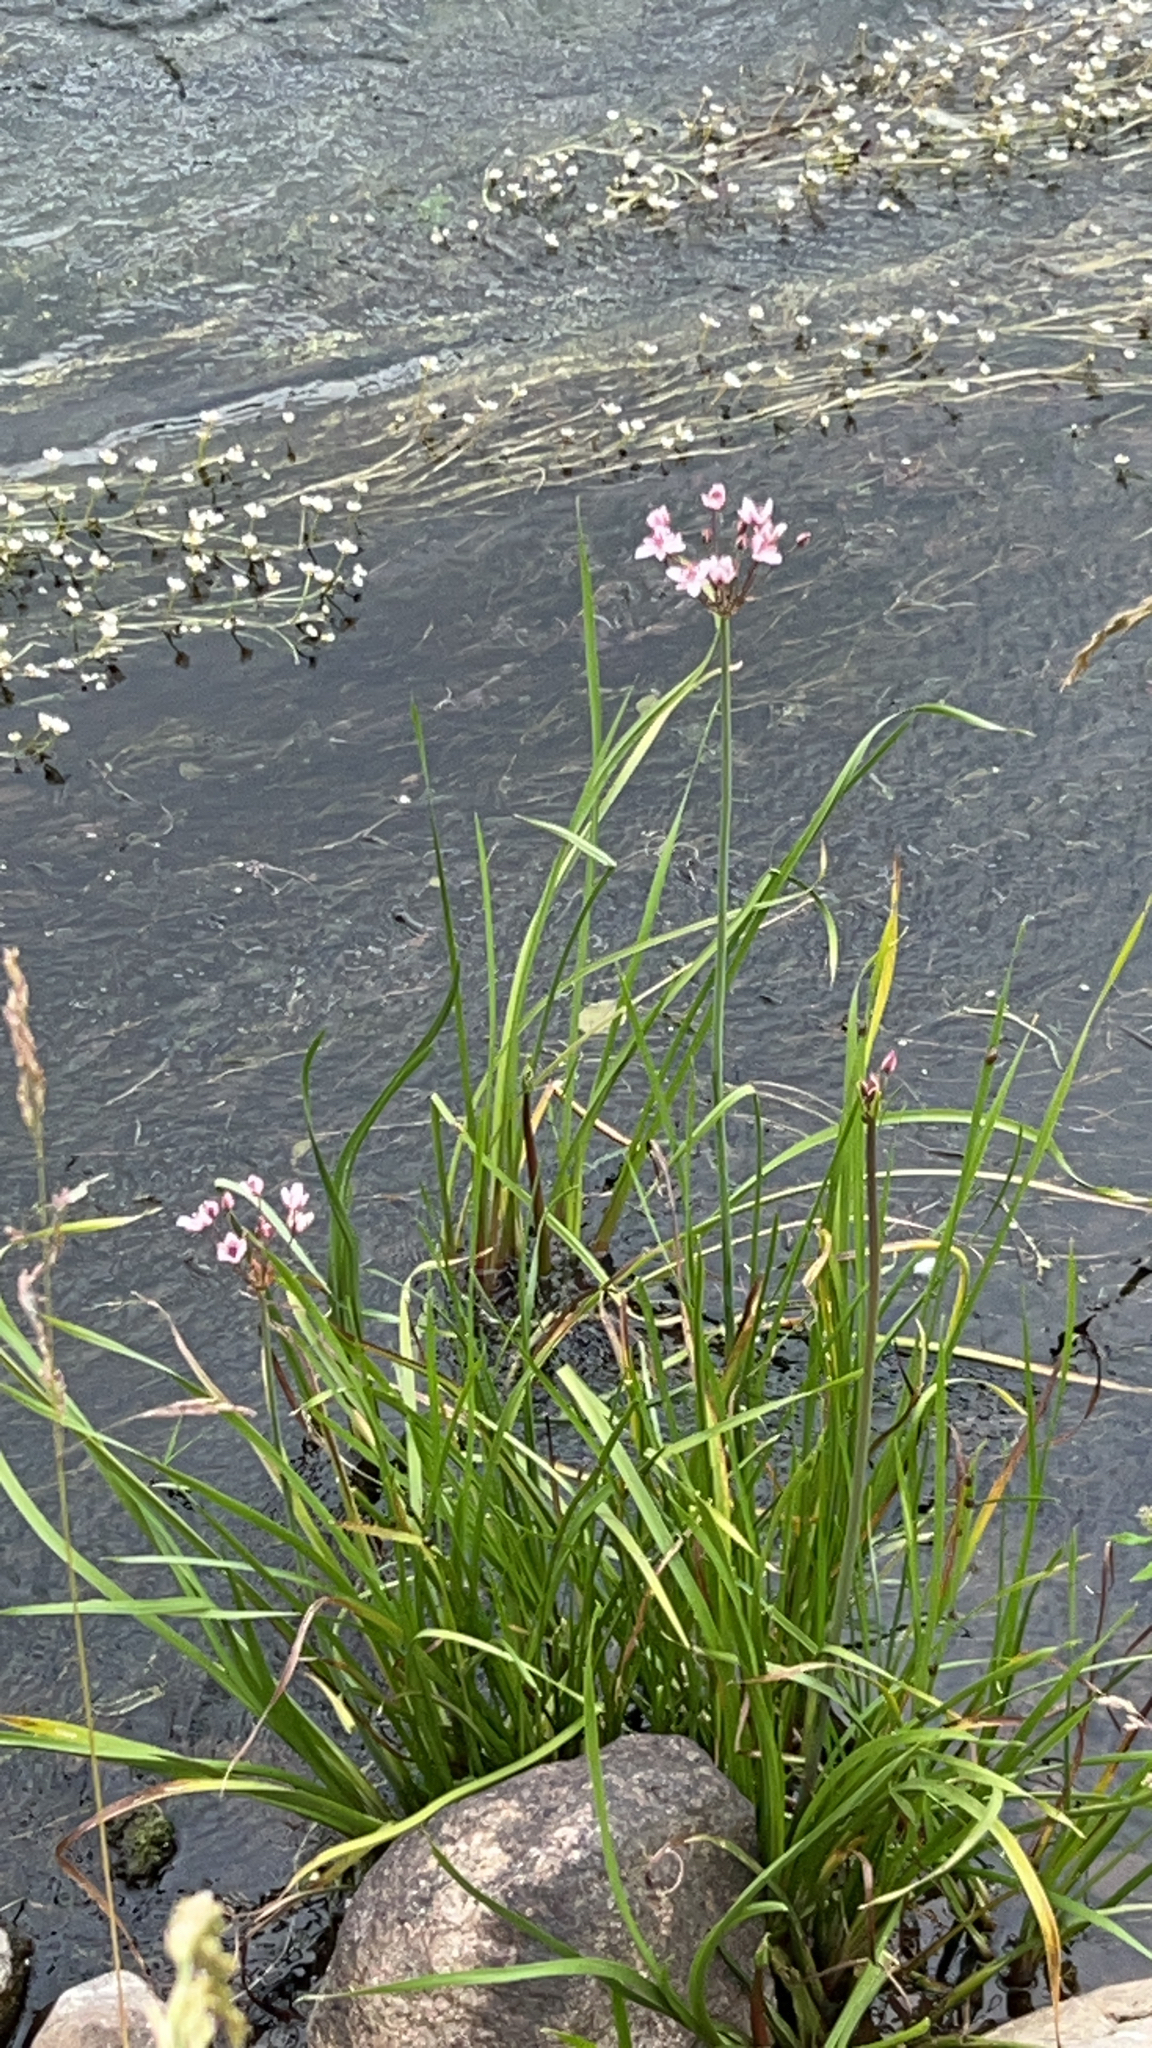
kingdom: Plantae
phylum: Tracheophyta
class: Liliopsida
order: Alismatales
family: Butomaceae
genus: Butomus
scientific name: Butomus umbellatus
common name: Flowering-rush
